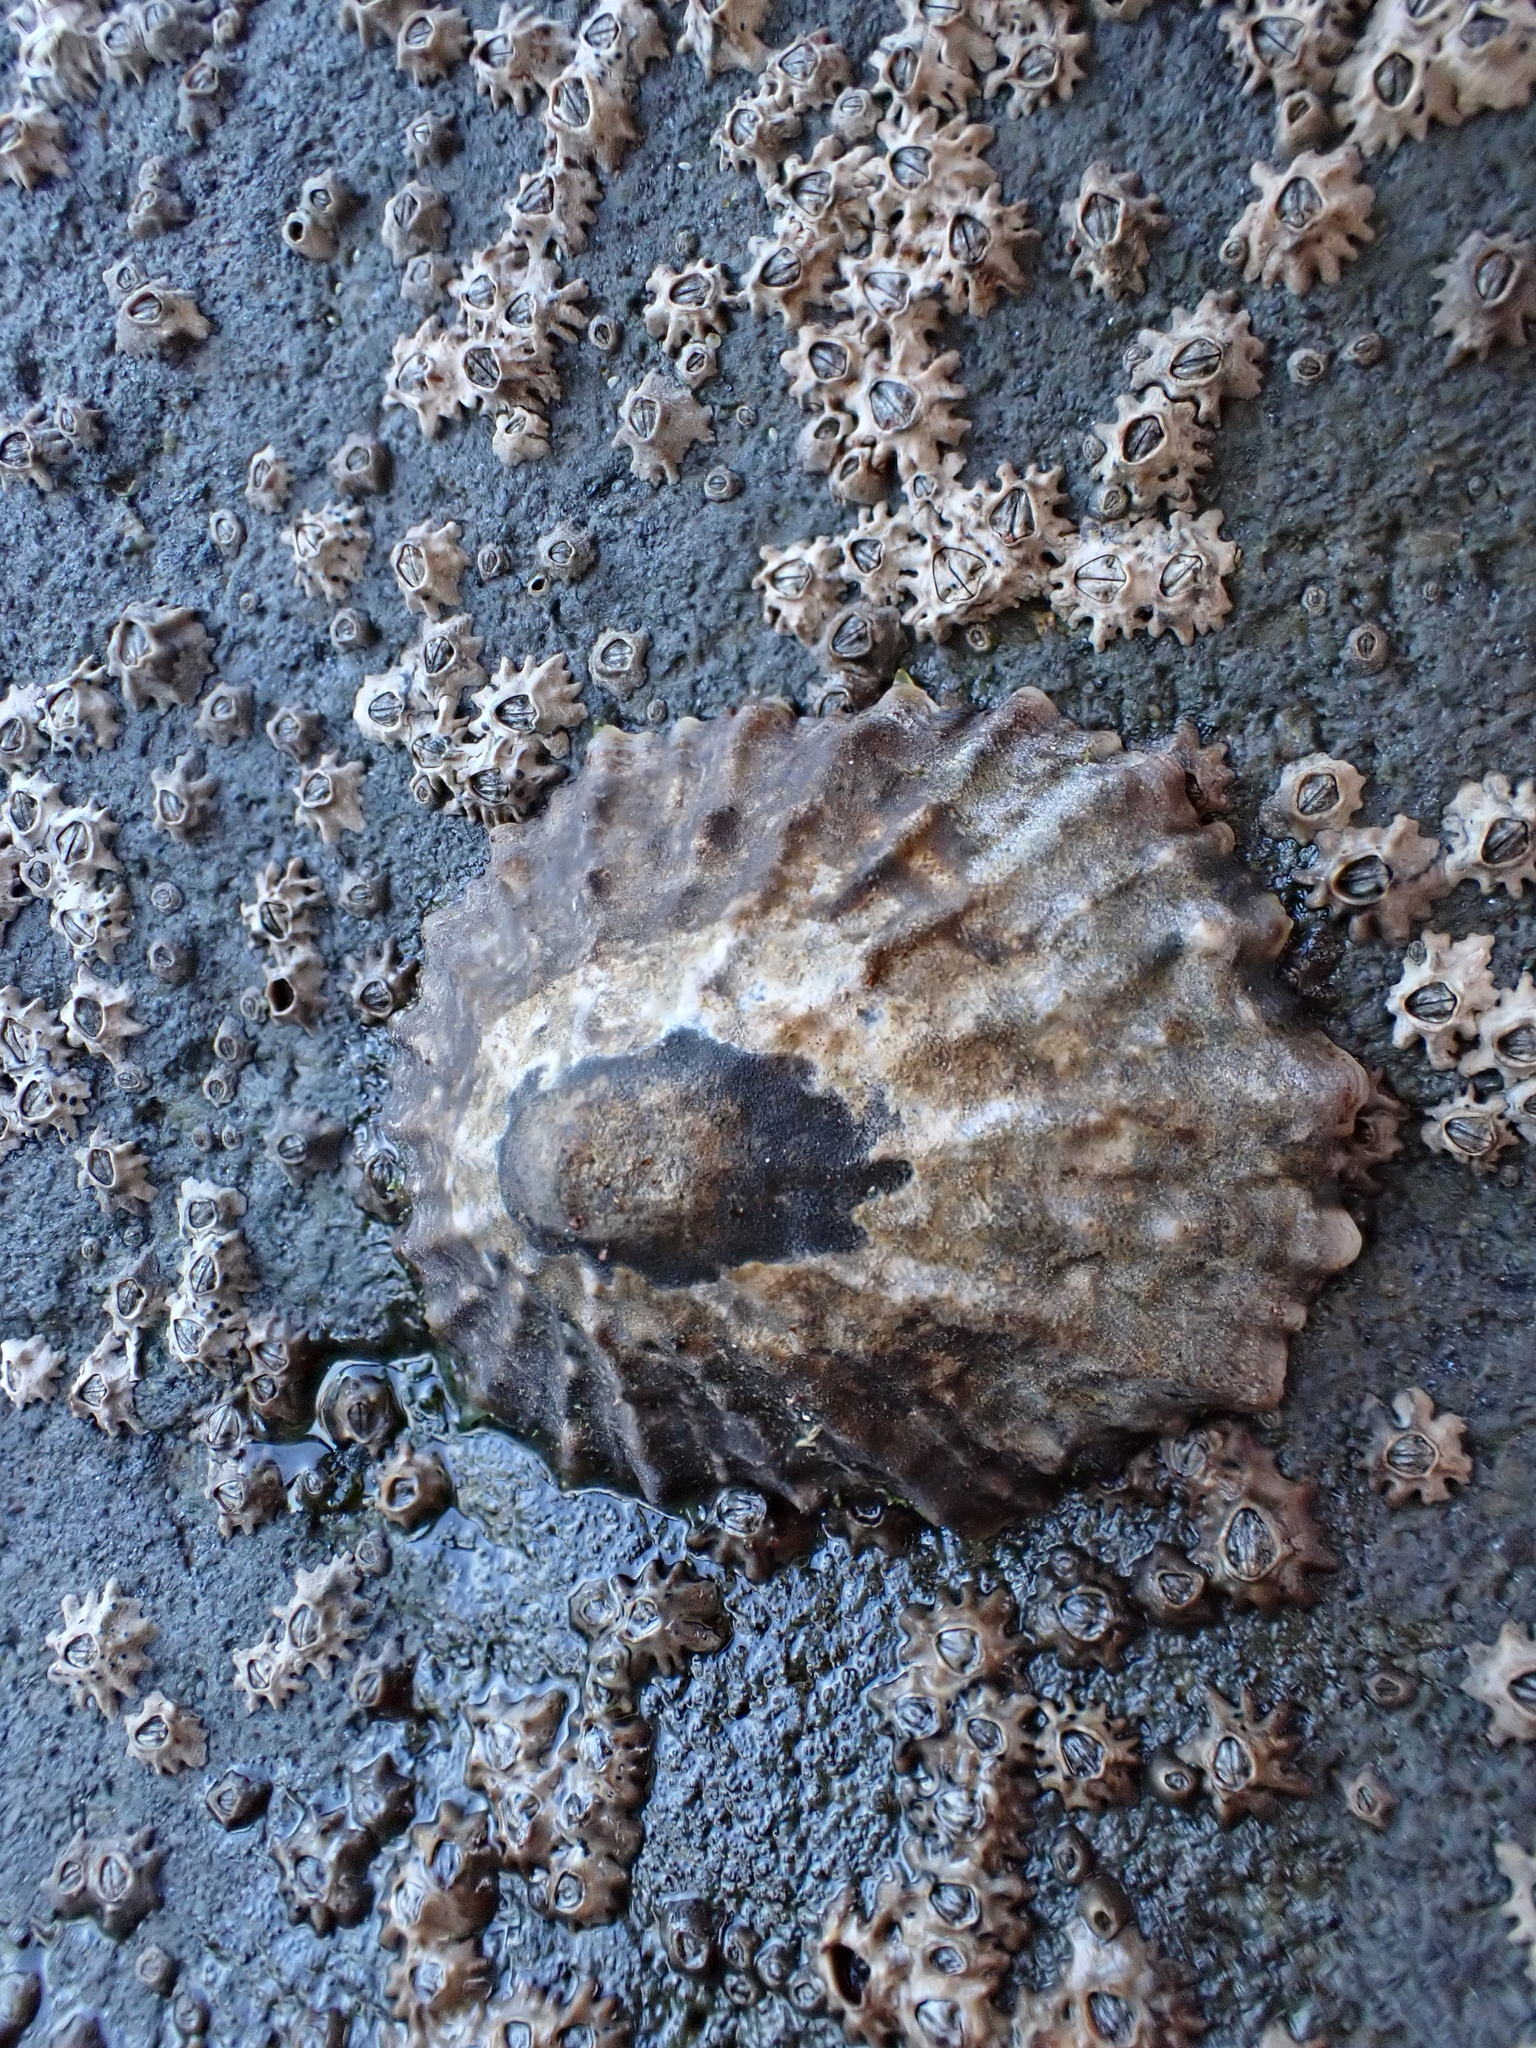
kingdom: Animalia
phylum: Mollusca
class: Gastropoda
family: Nacellidae
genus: Cellana
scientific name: Cellana ornata
